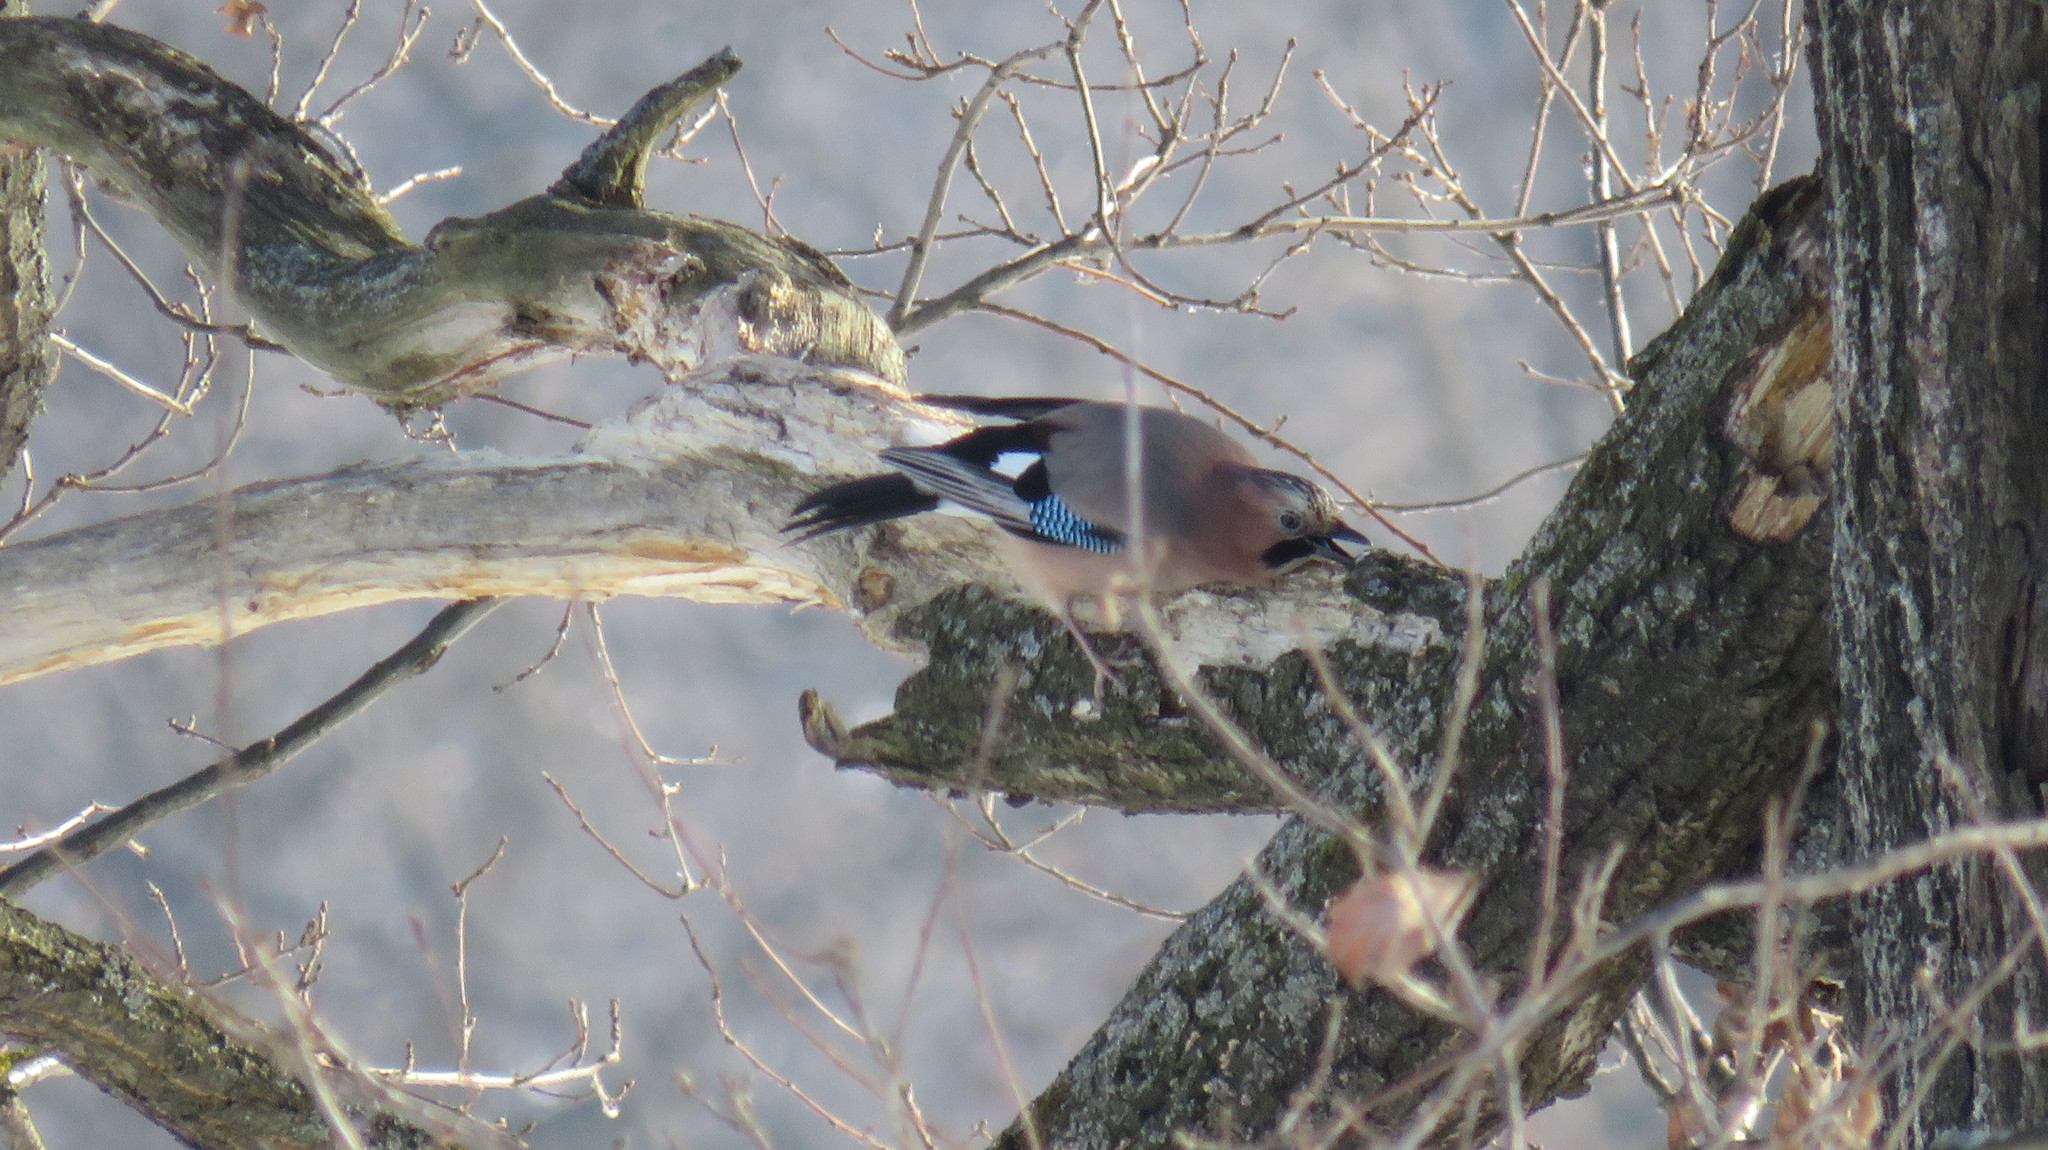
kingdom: Animalia
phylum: Chordata
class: Aves
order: Passeriformes
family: Corvidae
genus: Garrulus
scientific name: Garrulus glandarius
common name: Eurasian jay
